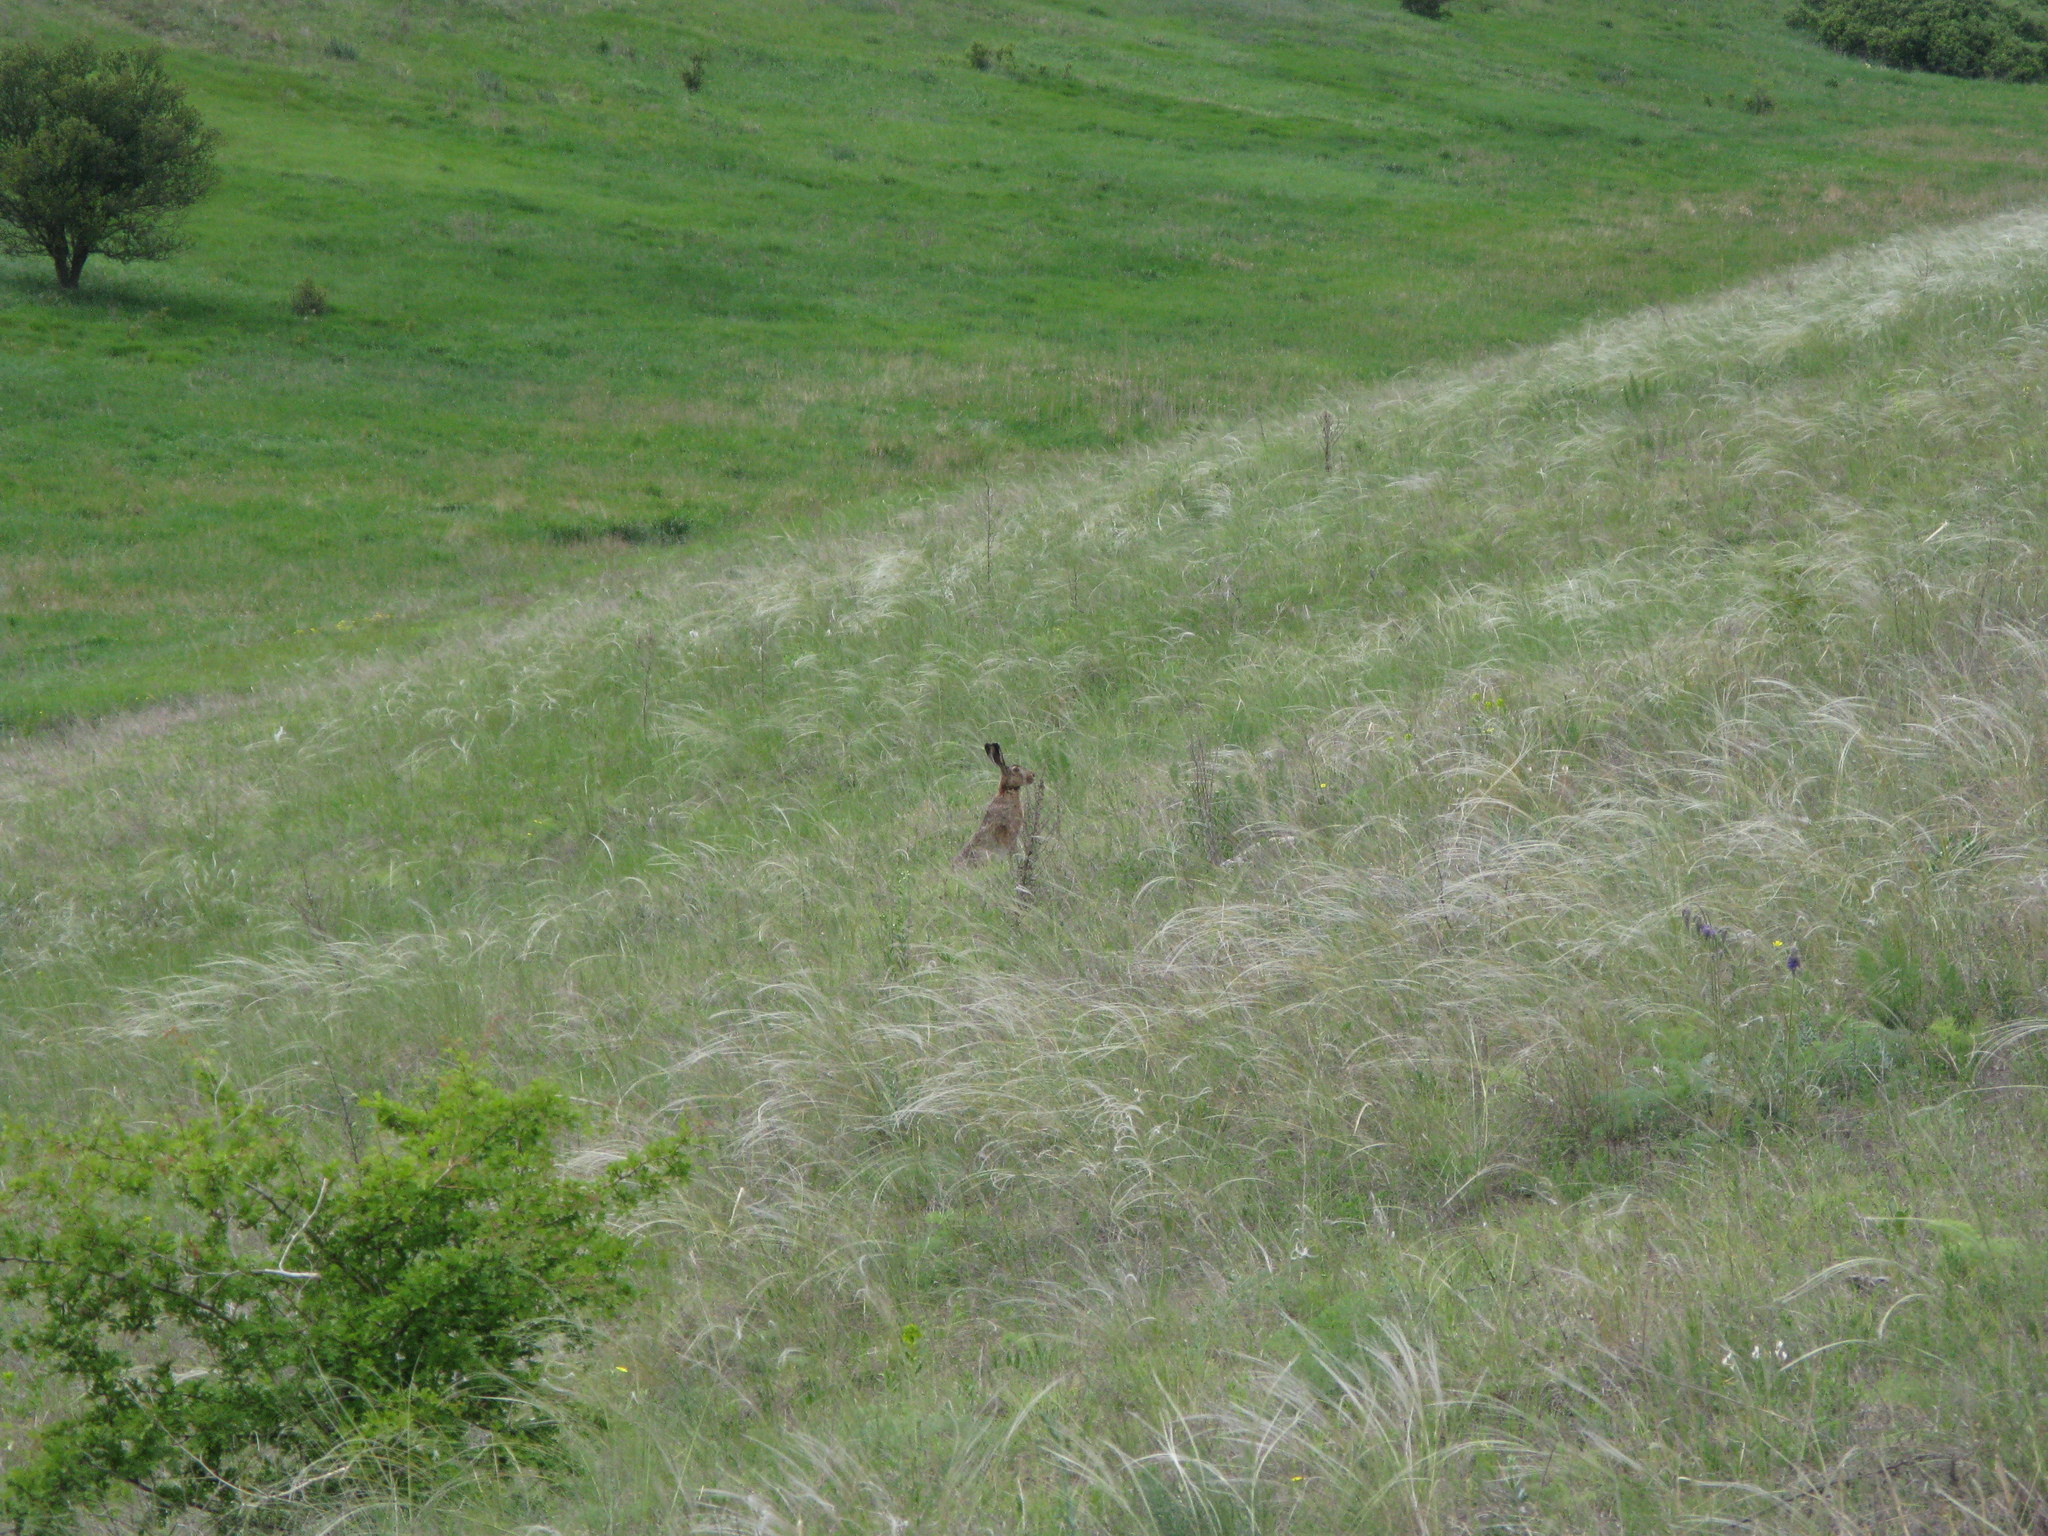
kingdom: Animalia
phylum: Chordata
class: Mammalia
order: Lagomorpha
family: Leporidae
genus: Lepus
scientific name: Lepus europaeus
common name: European hare
